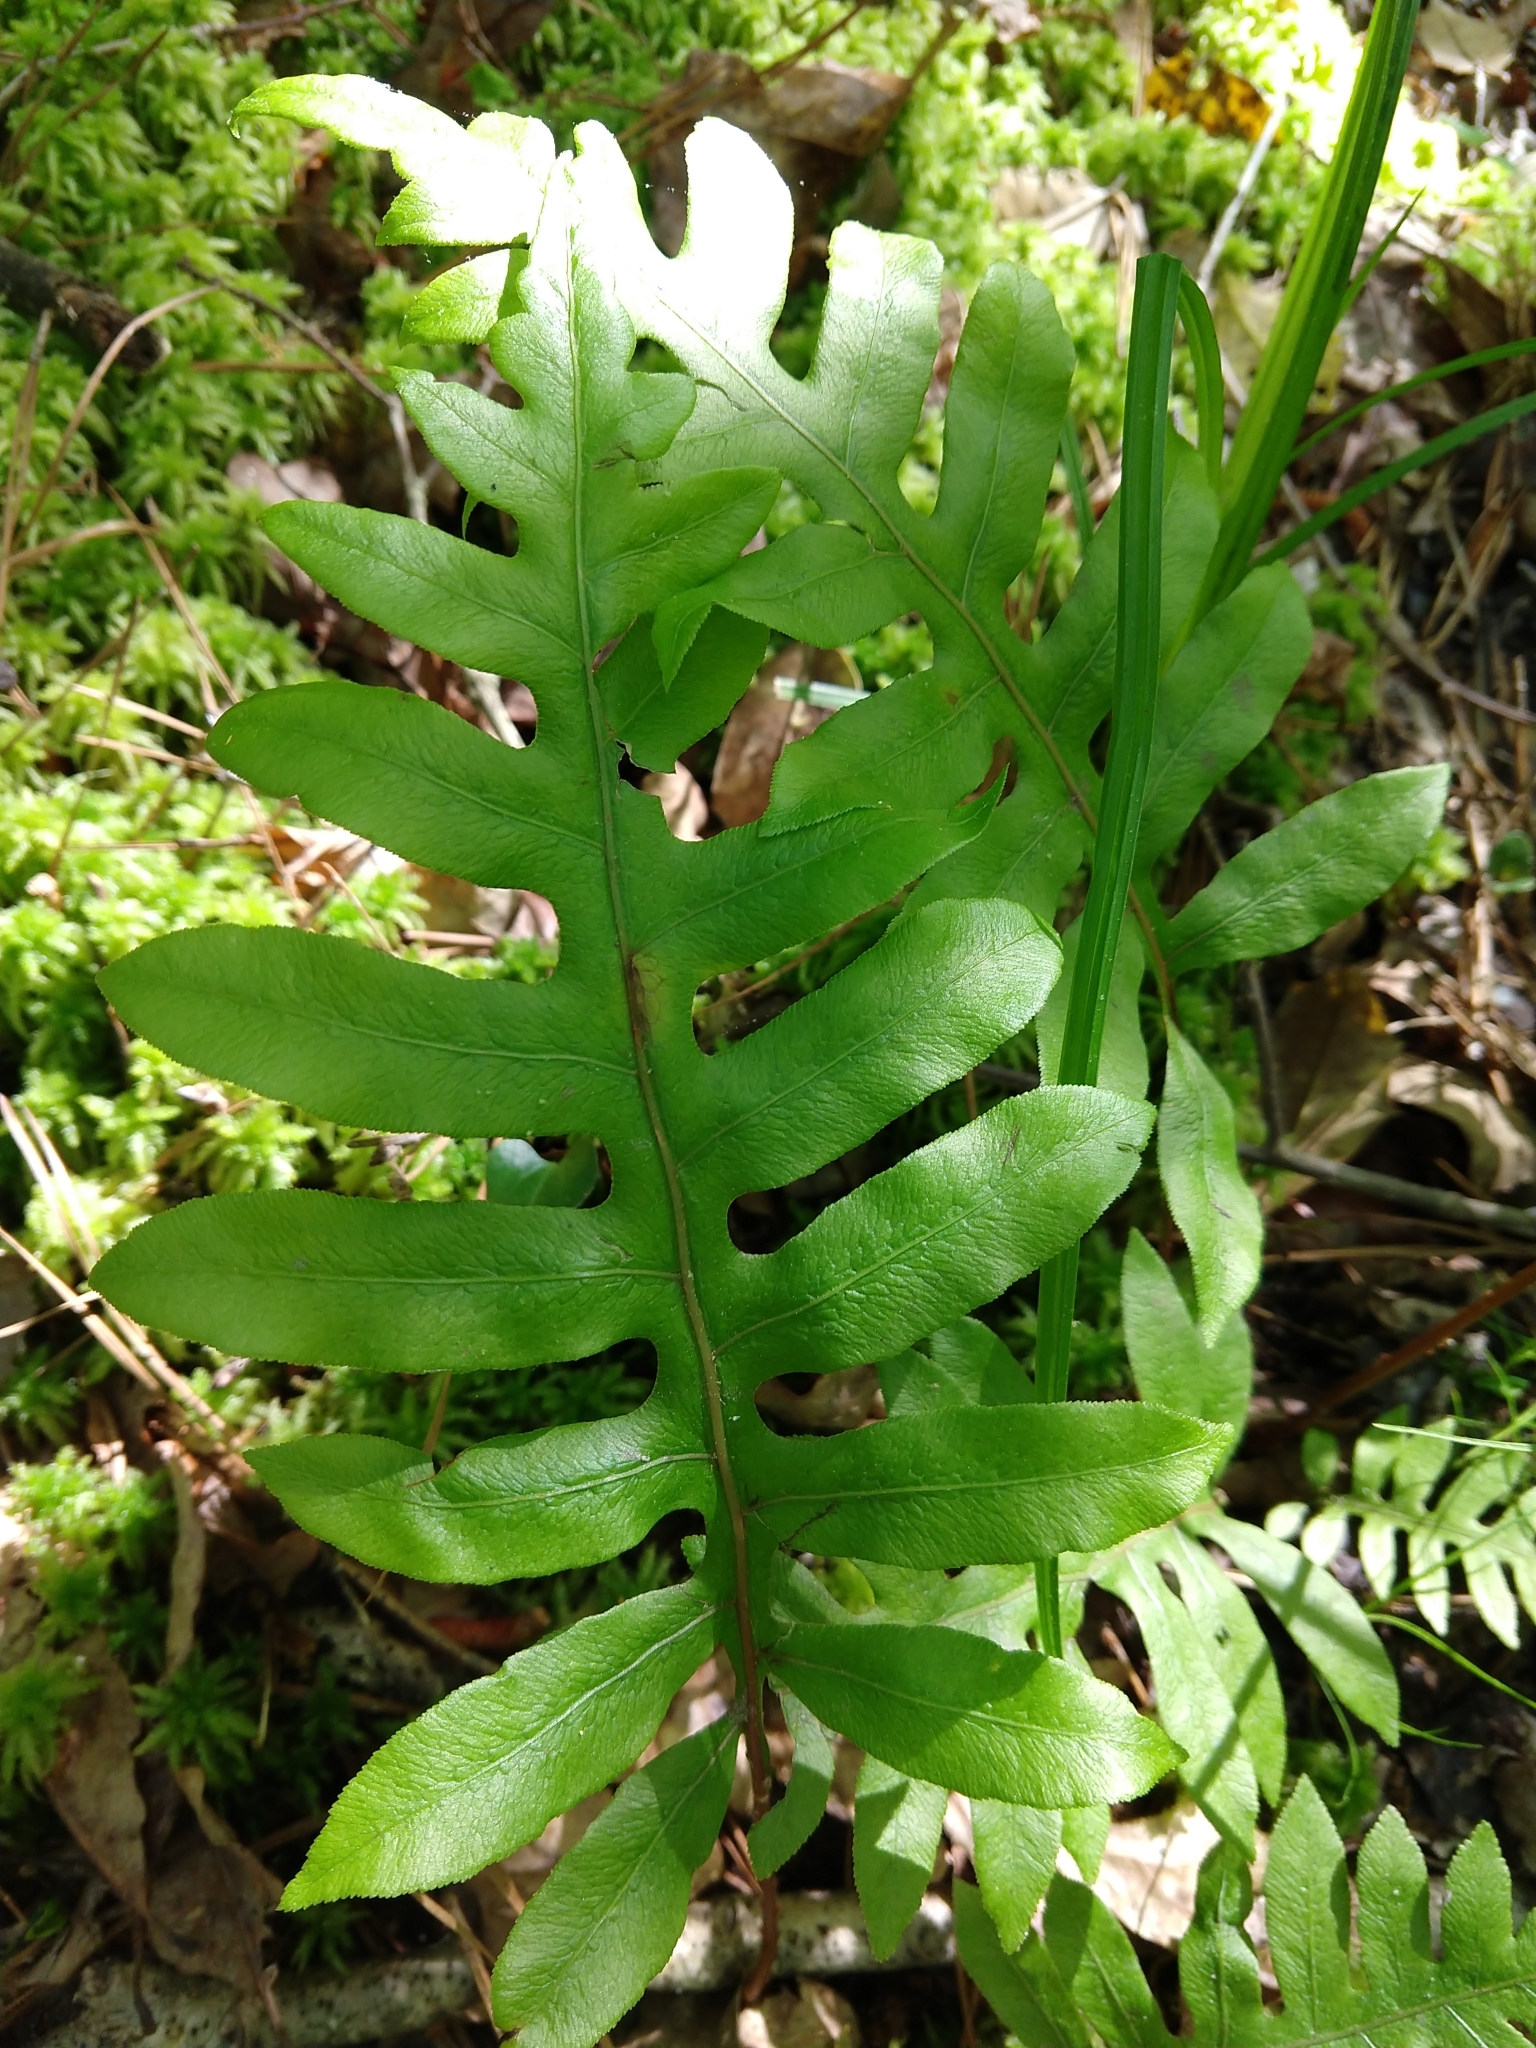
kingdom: Plantae
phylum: Tracheophyta
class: Polypodiopsida
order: Polypodiales
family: Blechnaceae
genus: Lorinseria
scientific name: Lorinseria areolata
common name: Dwarf chain fern
